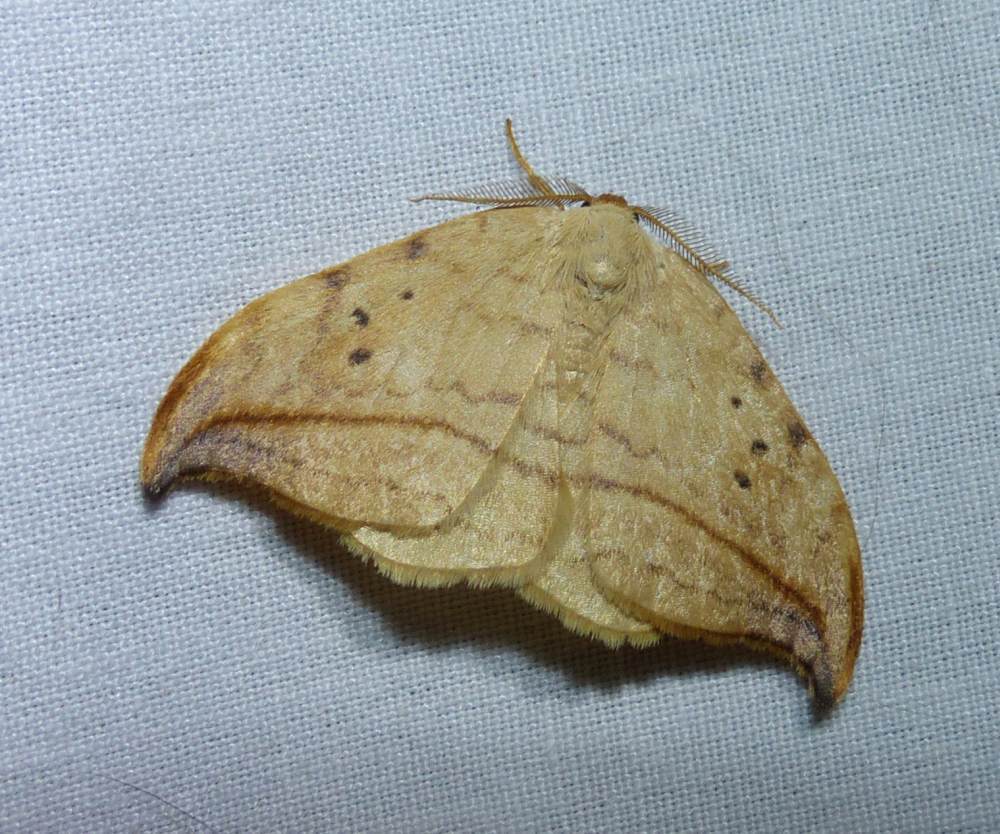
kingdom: Animalia
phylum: Arthropoda
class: Insecta
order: Lepidoptera
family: Drepanidae
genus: Drepana
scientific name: Drepana arcuata
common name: Arched hooktip moth
